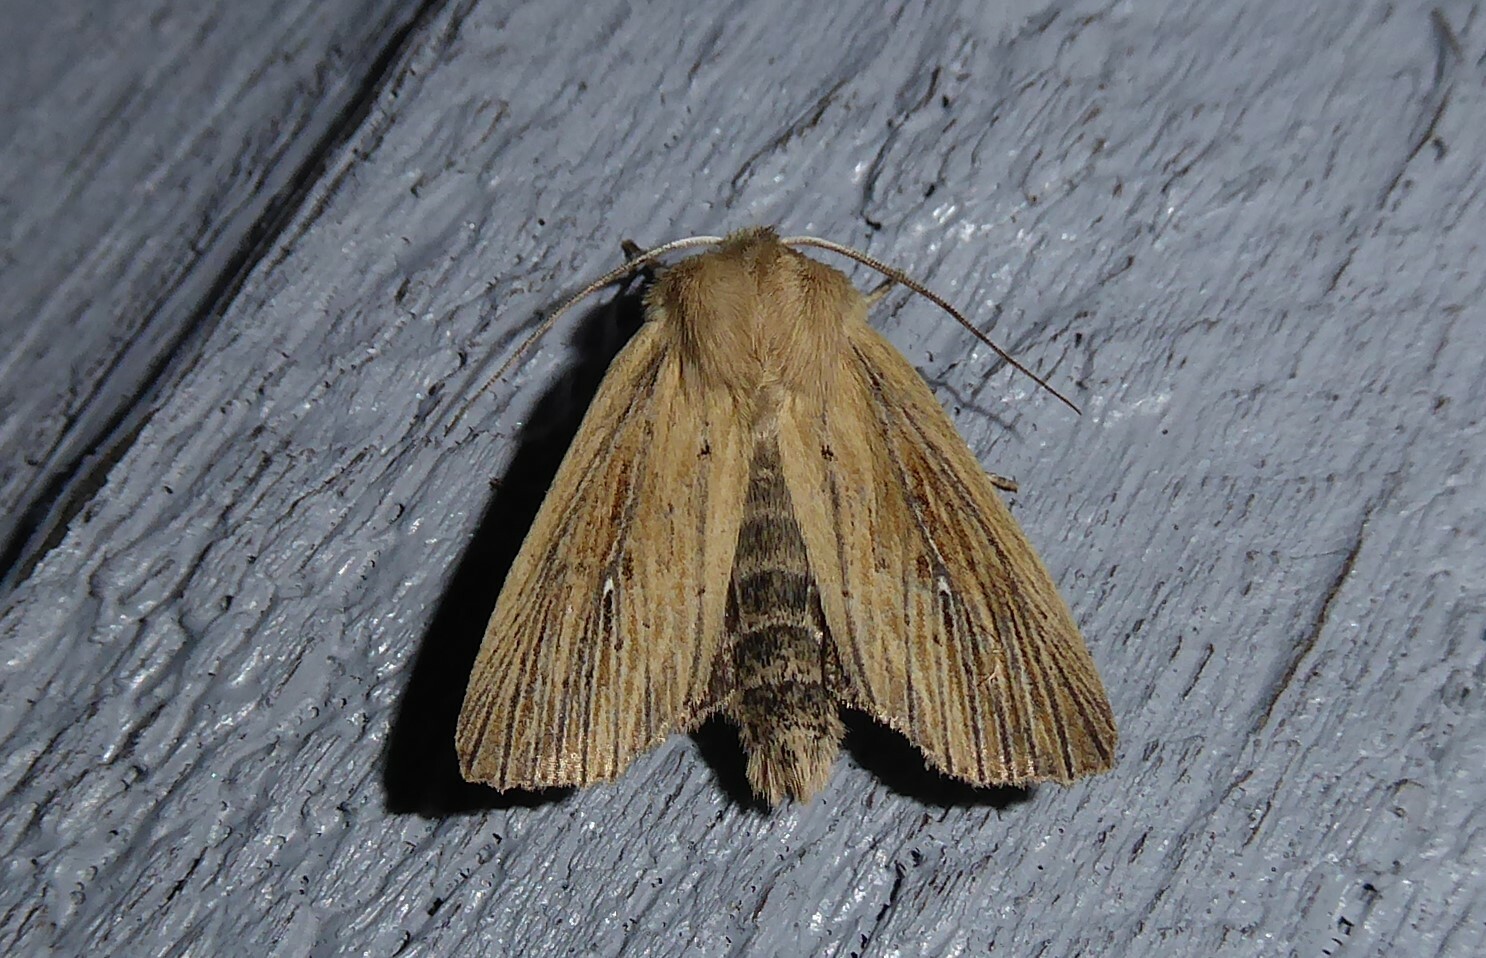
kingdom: Animalia
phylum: Arthropoda
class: Insecta
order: Lepidoptera
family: Noctuidae
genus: Ichneutica
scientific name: Ichneutica arotis
